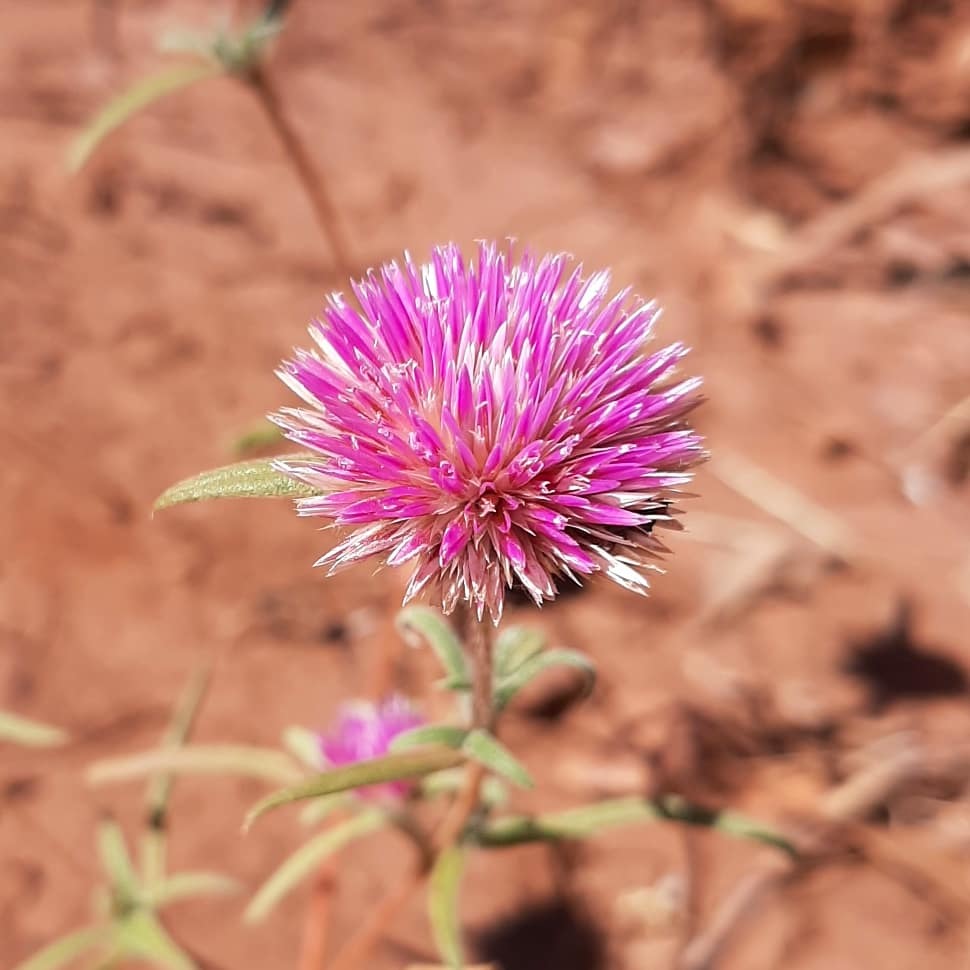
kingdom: Plantae
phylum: Tracheophyta
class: Magnoliopsida
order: Caryophyllales
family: Amaranthaceae
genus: Gomphrena
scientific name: Gomphrena canescens
